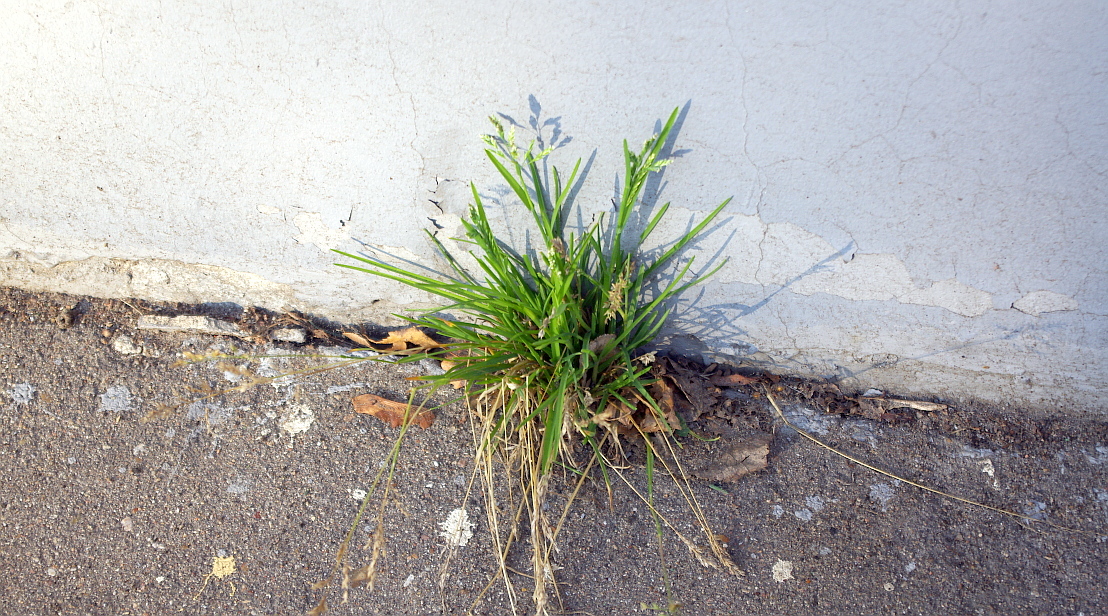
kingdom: Plantae
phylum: Tracheophyta
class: Liliopsida
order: Poales
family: Poaceae
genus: Poa
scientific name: Poa annua
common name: Annual bluegrass
